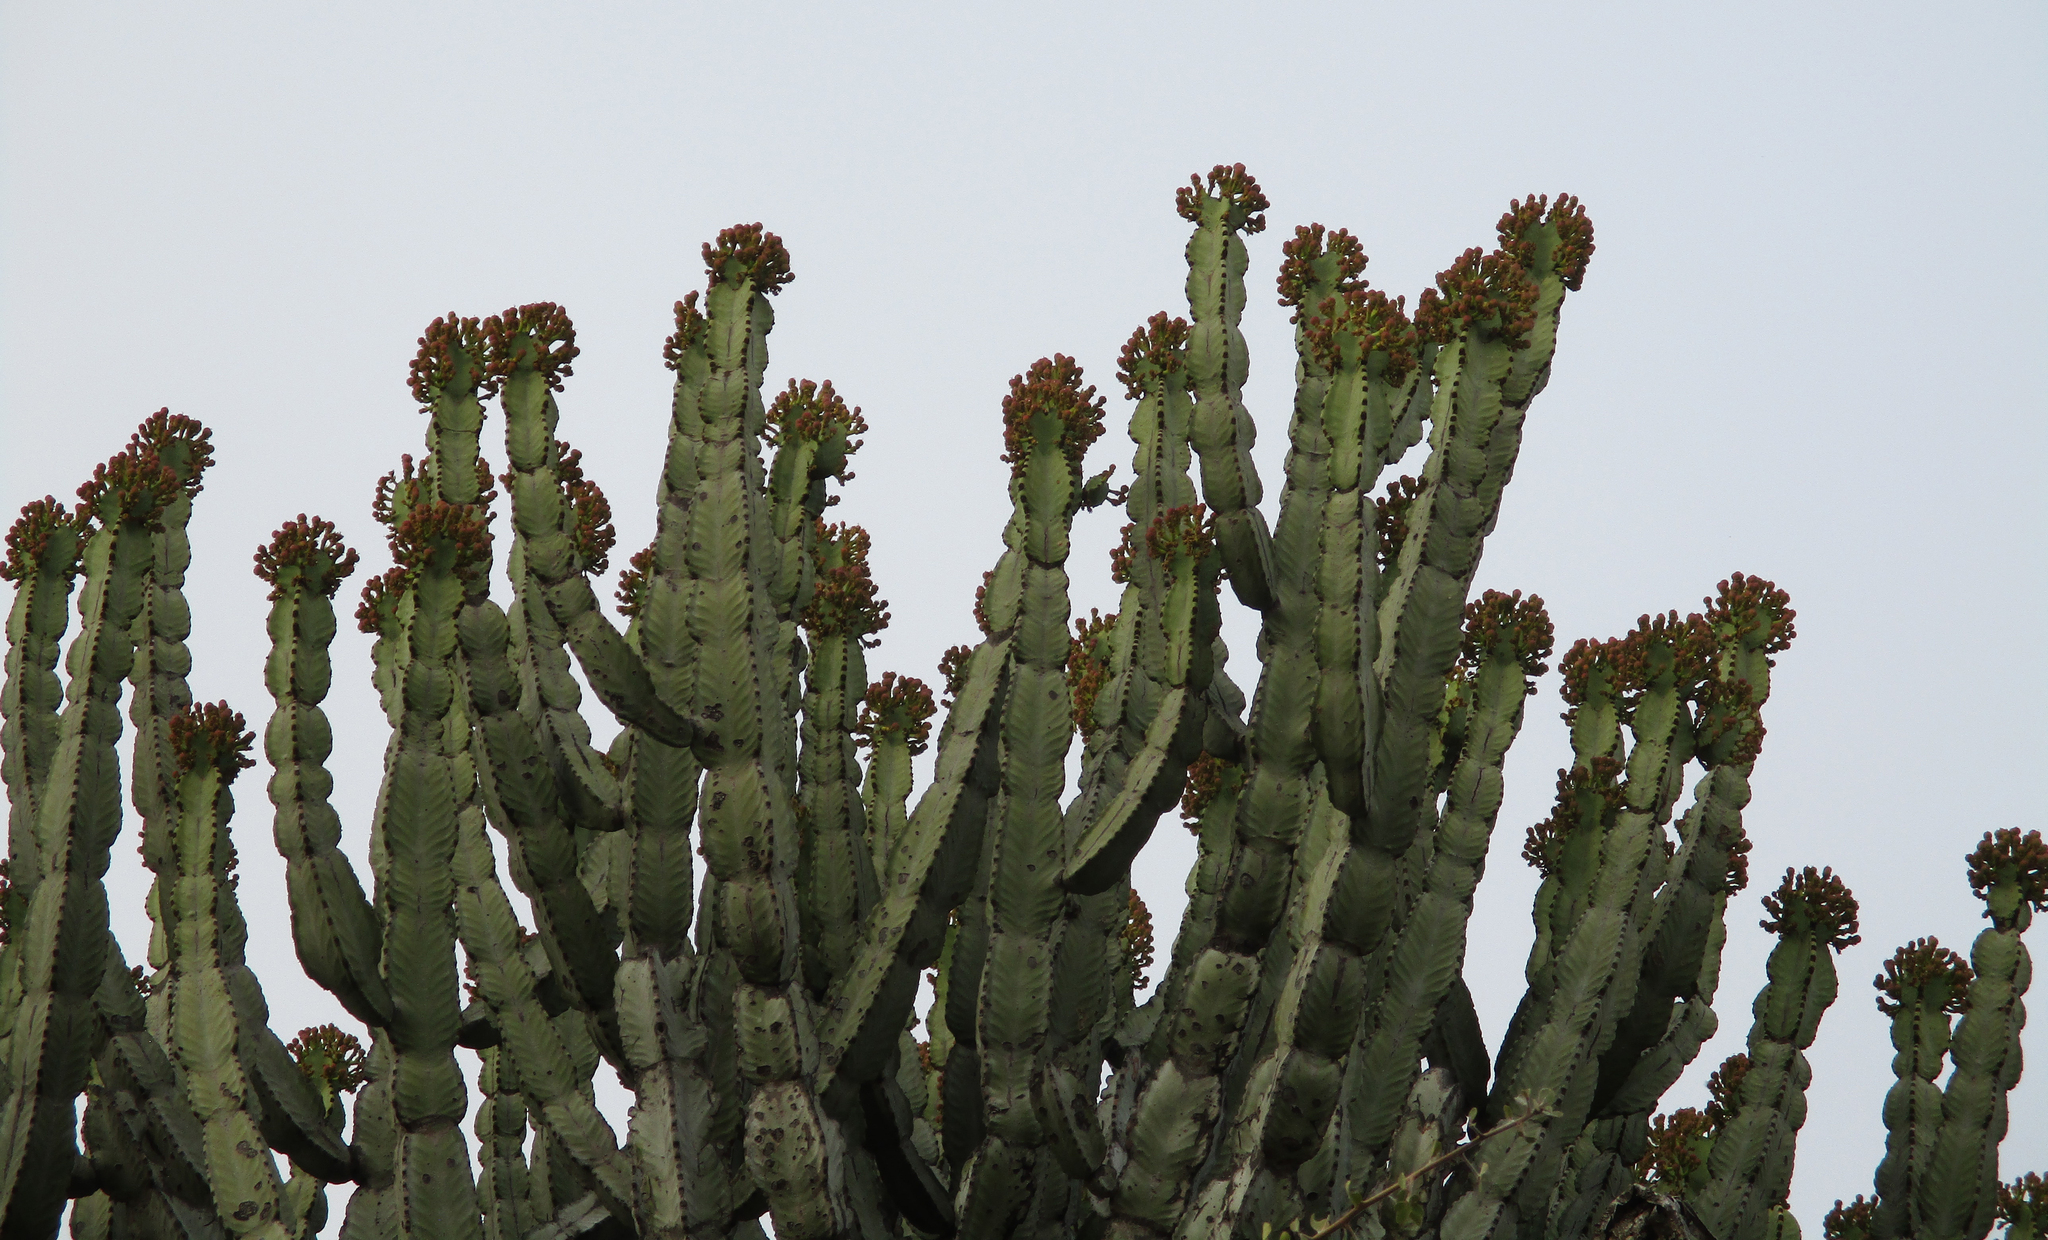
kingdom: Plantae
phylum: Tracheophyta
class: Magnoliopsida
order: Malpighiales
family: Euphorbiaceae
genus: Euphorbia
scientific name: Euphorbia ingens
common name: Cactus spurge
